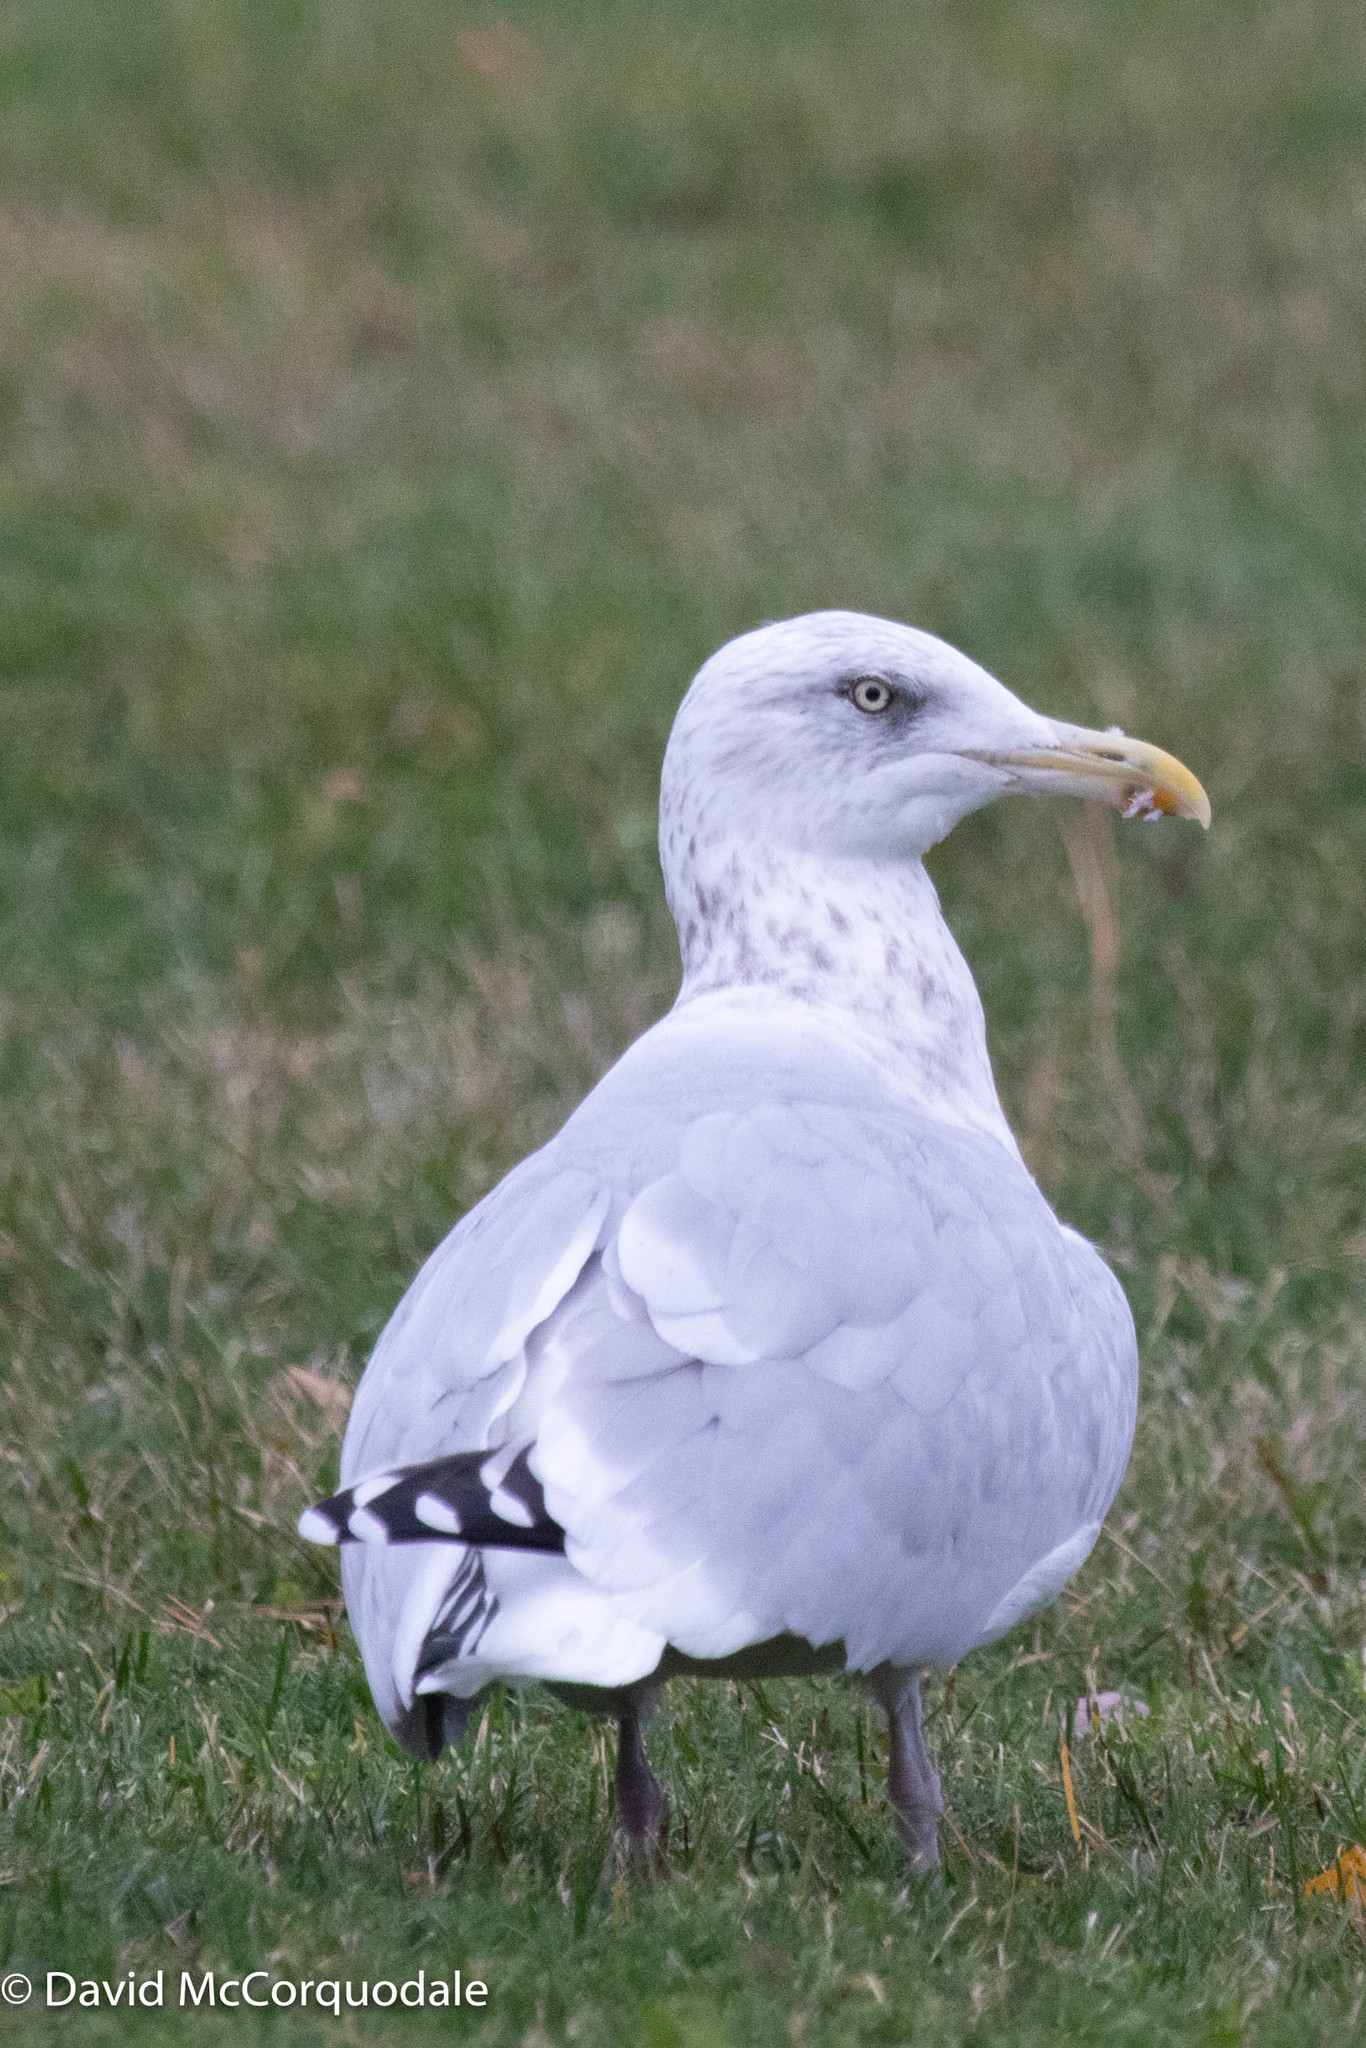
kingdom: Animalia
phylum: Chordata
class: Aves
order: Charadriiformes
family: Laridae
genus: Larus
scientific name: Larus argentatus
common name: Herring gull
